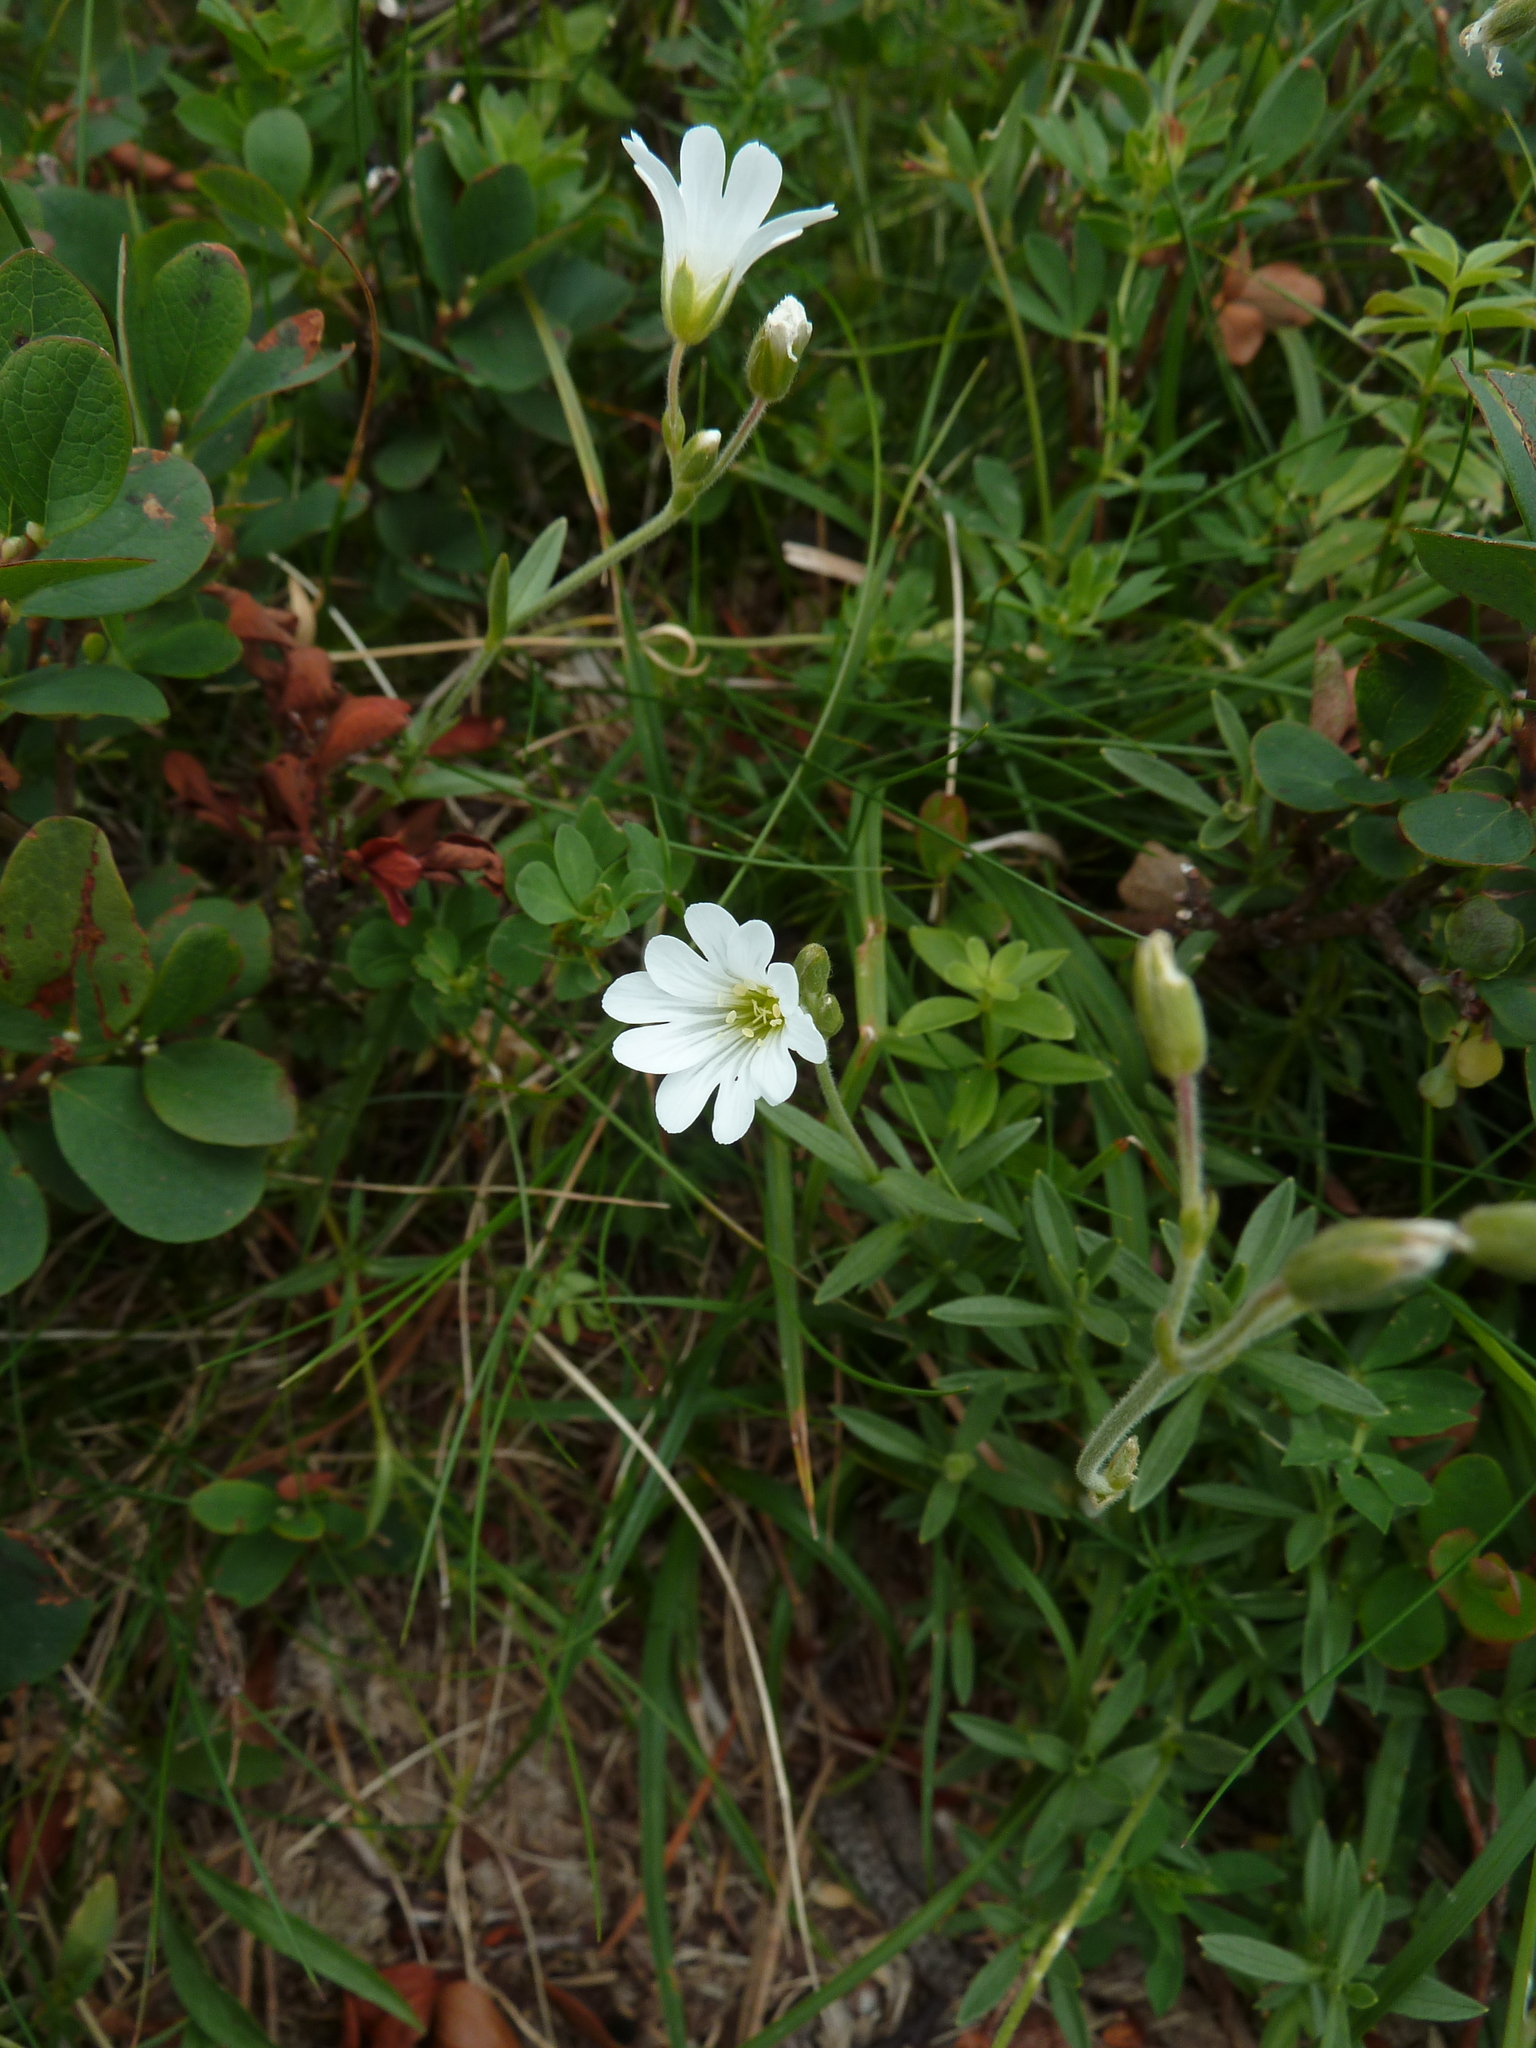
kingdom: Plantae
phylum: Tracheophyta
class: Magnoliopsida
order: Caryophyllales
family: Caryophyllaceae
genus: Cerastium
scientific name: Cerastium arvense
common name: Field mouse-ear
